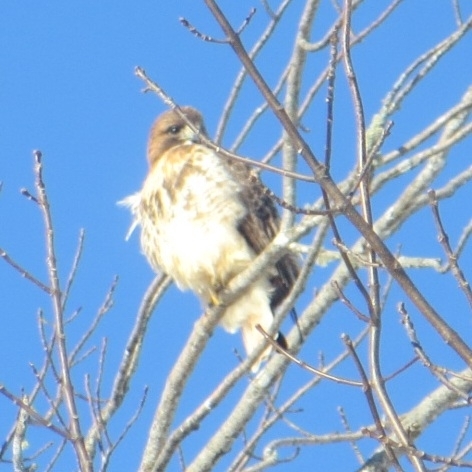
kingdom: Animalia
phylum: Chordata
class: Aves
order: Accipitriformes
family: Accipitridae
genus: Buteo
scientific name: Buteo jamaicensis
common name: Red-tailed hawk
